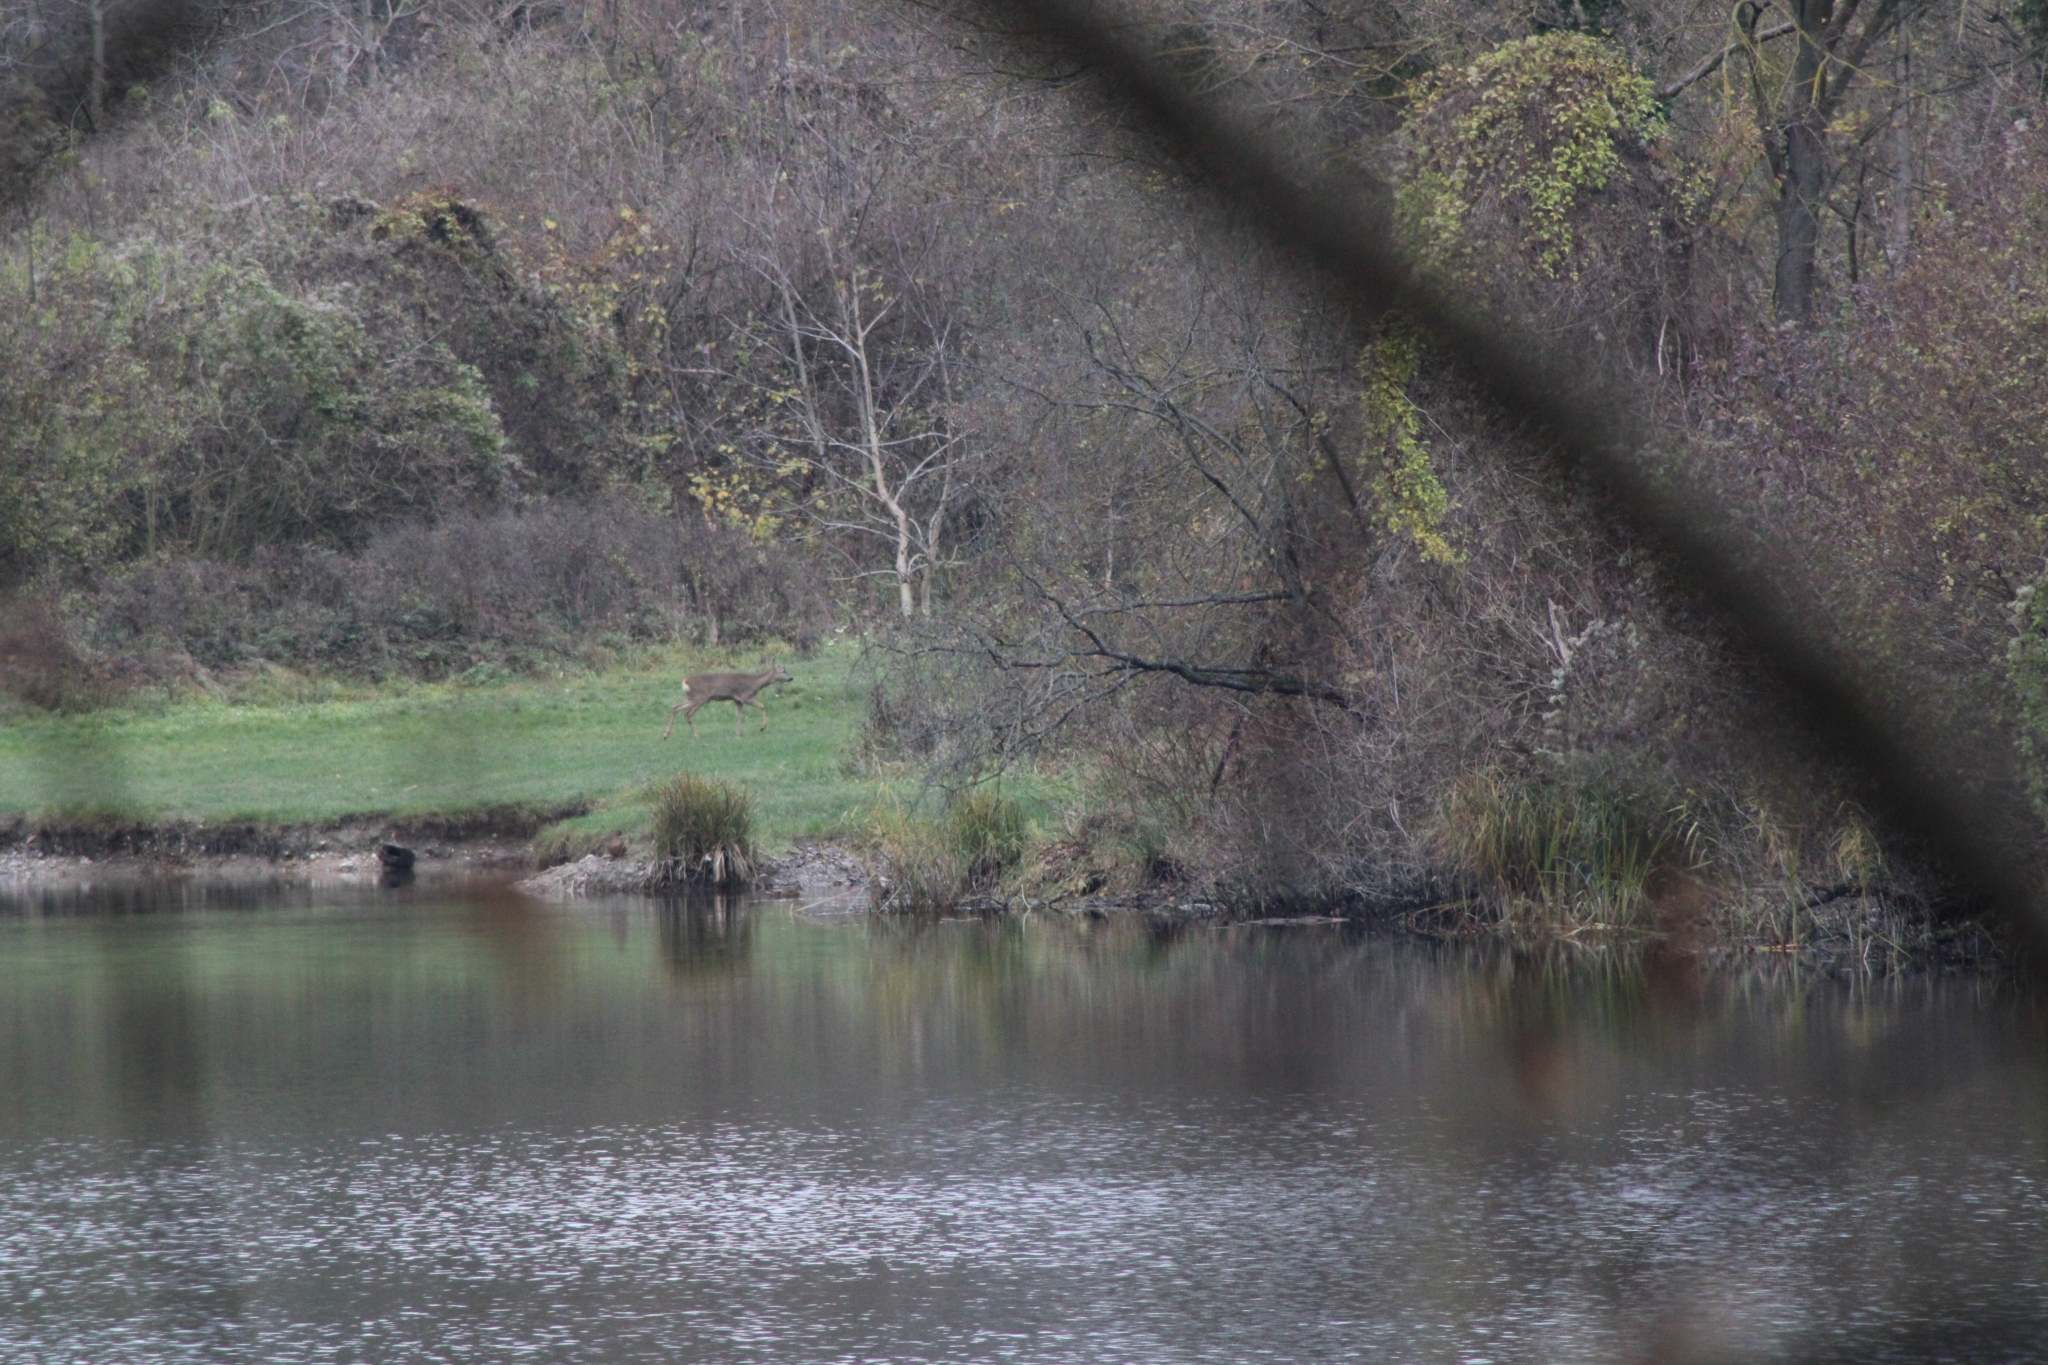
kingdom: Animalia
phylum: Chordata
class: Mammalia
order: Artiodactyla
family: Cervidae
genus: Capreolus
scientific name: Capreolus capreolus
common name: Western roe deer
